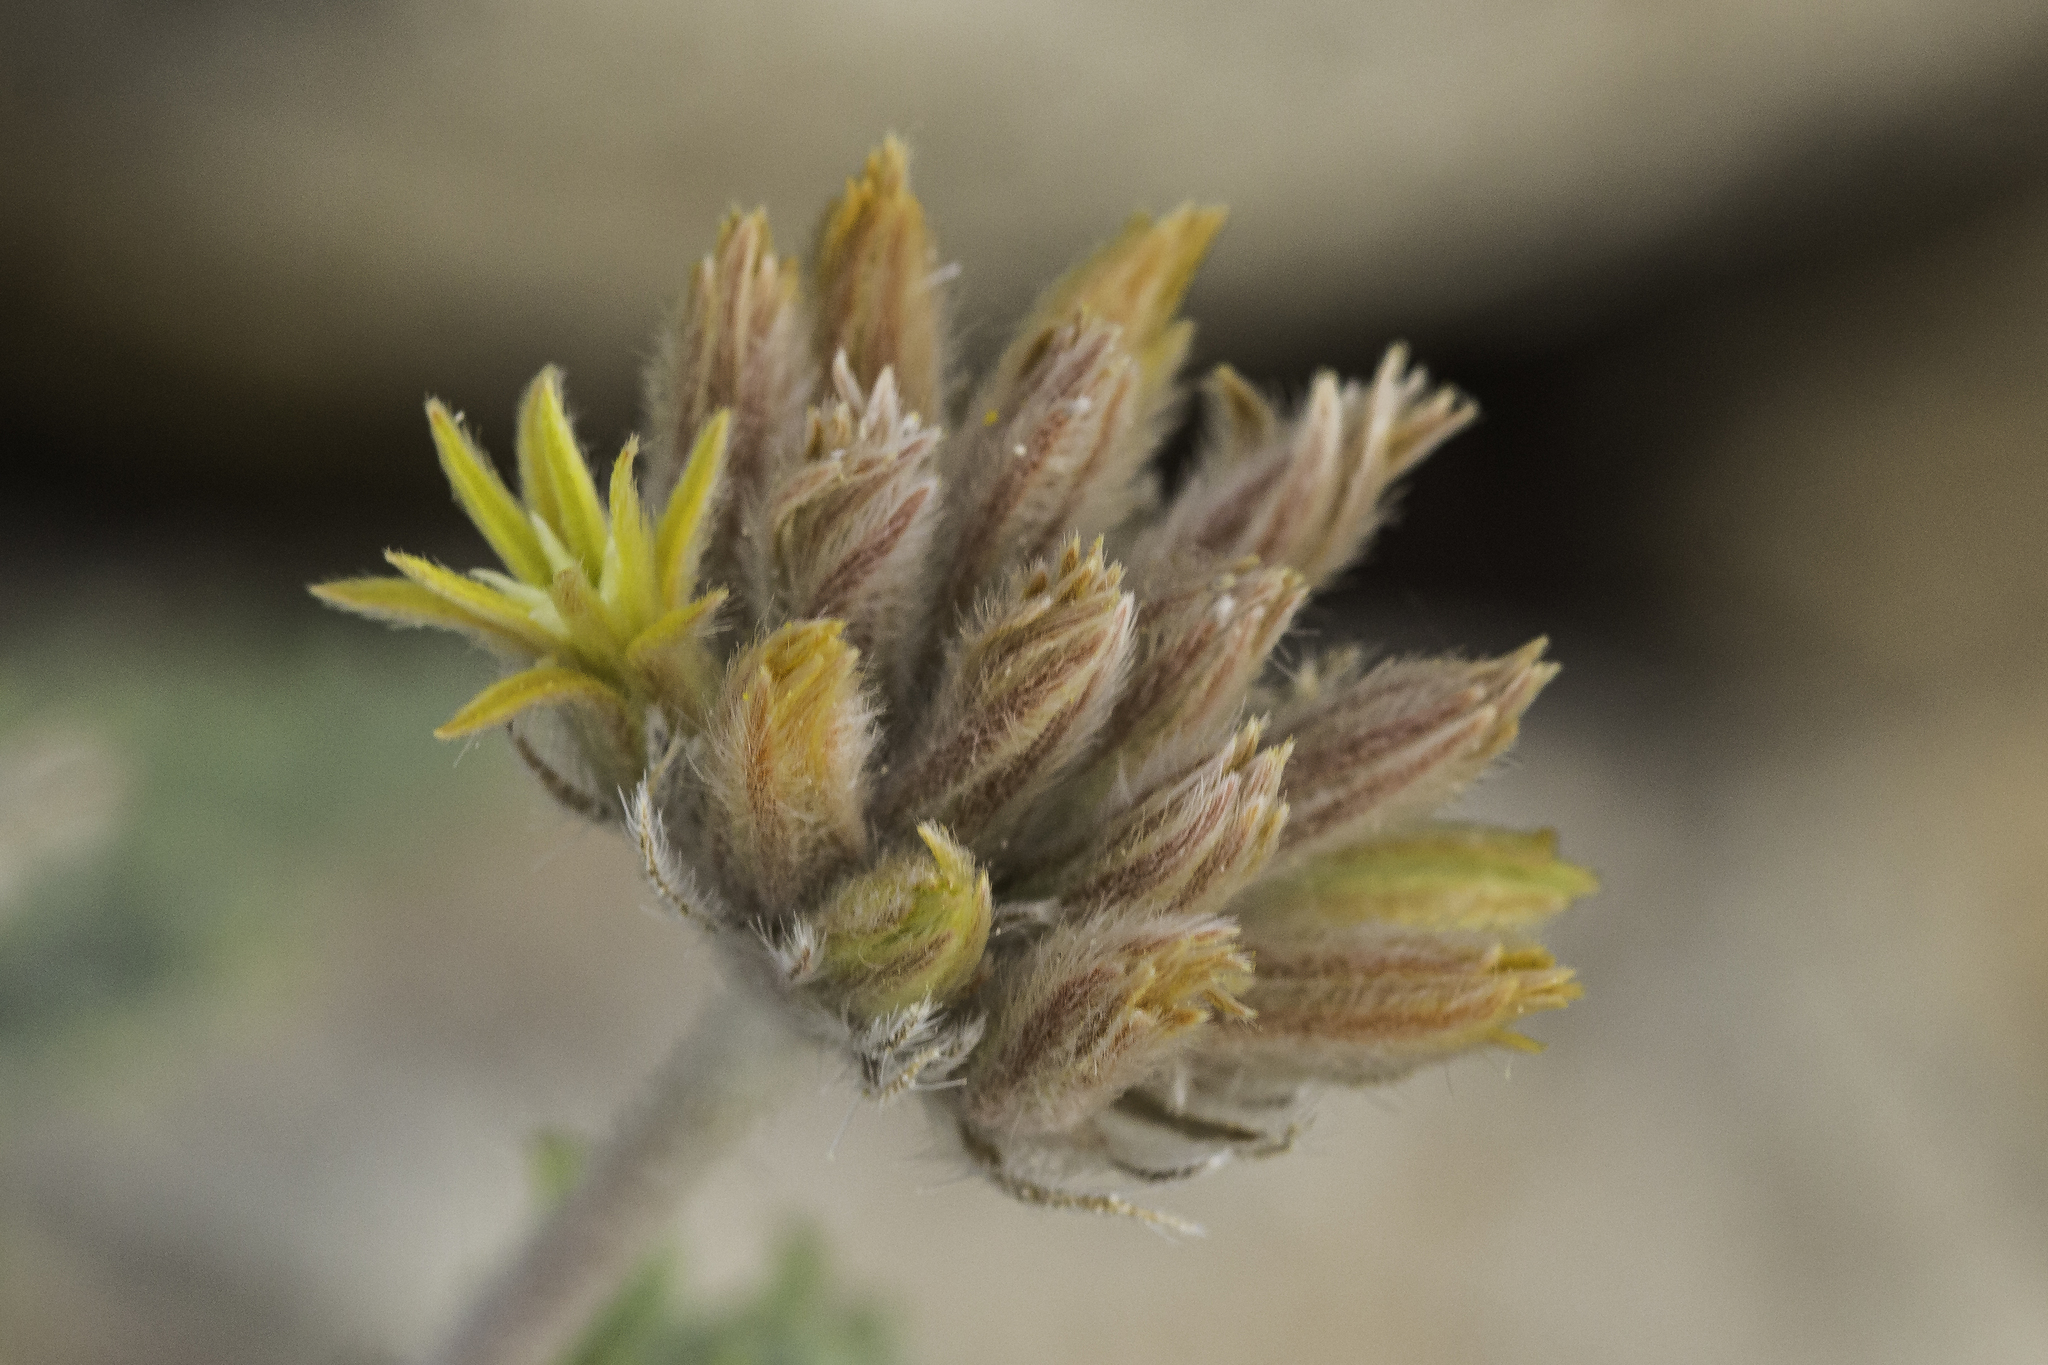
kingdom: Plantae
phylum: Tracheophyta
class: Magnoliopsida
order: Cornales
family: Loasaceae
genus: Cevallia
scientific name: Cevallia sinuata
